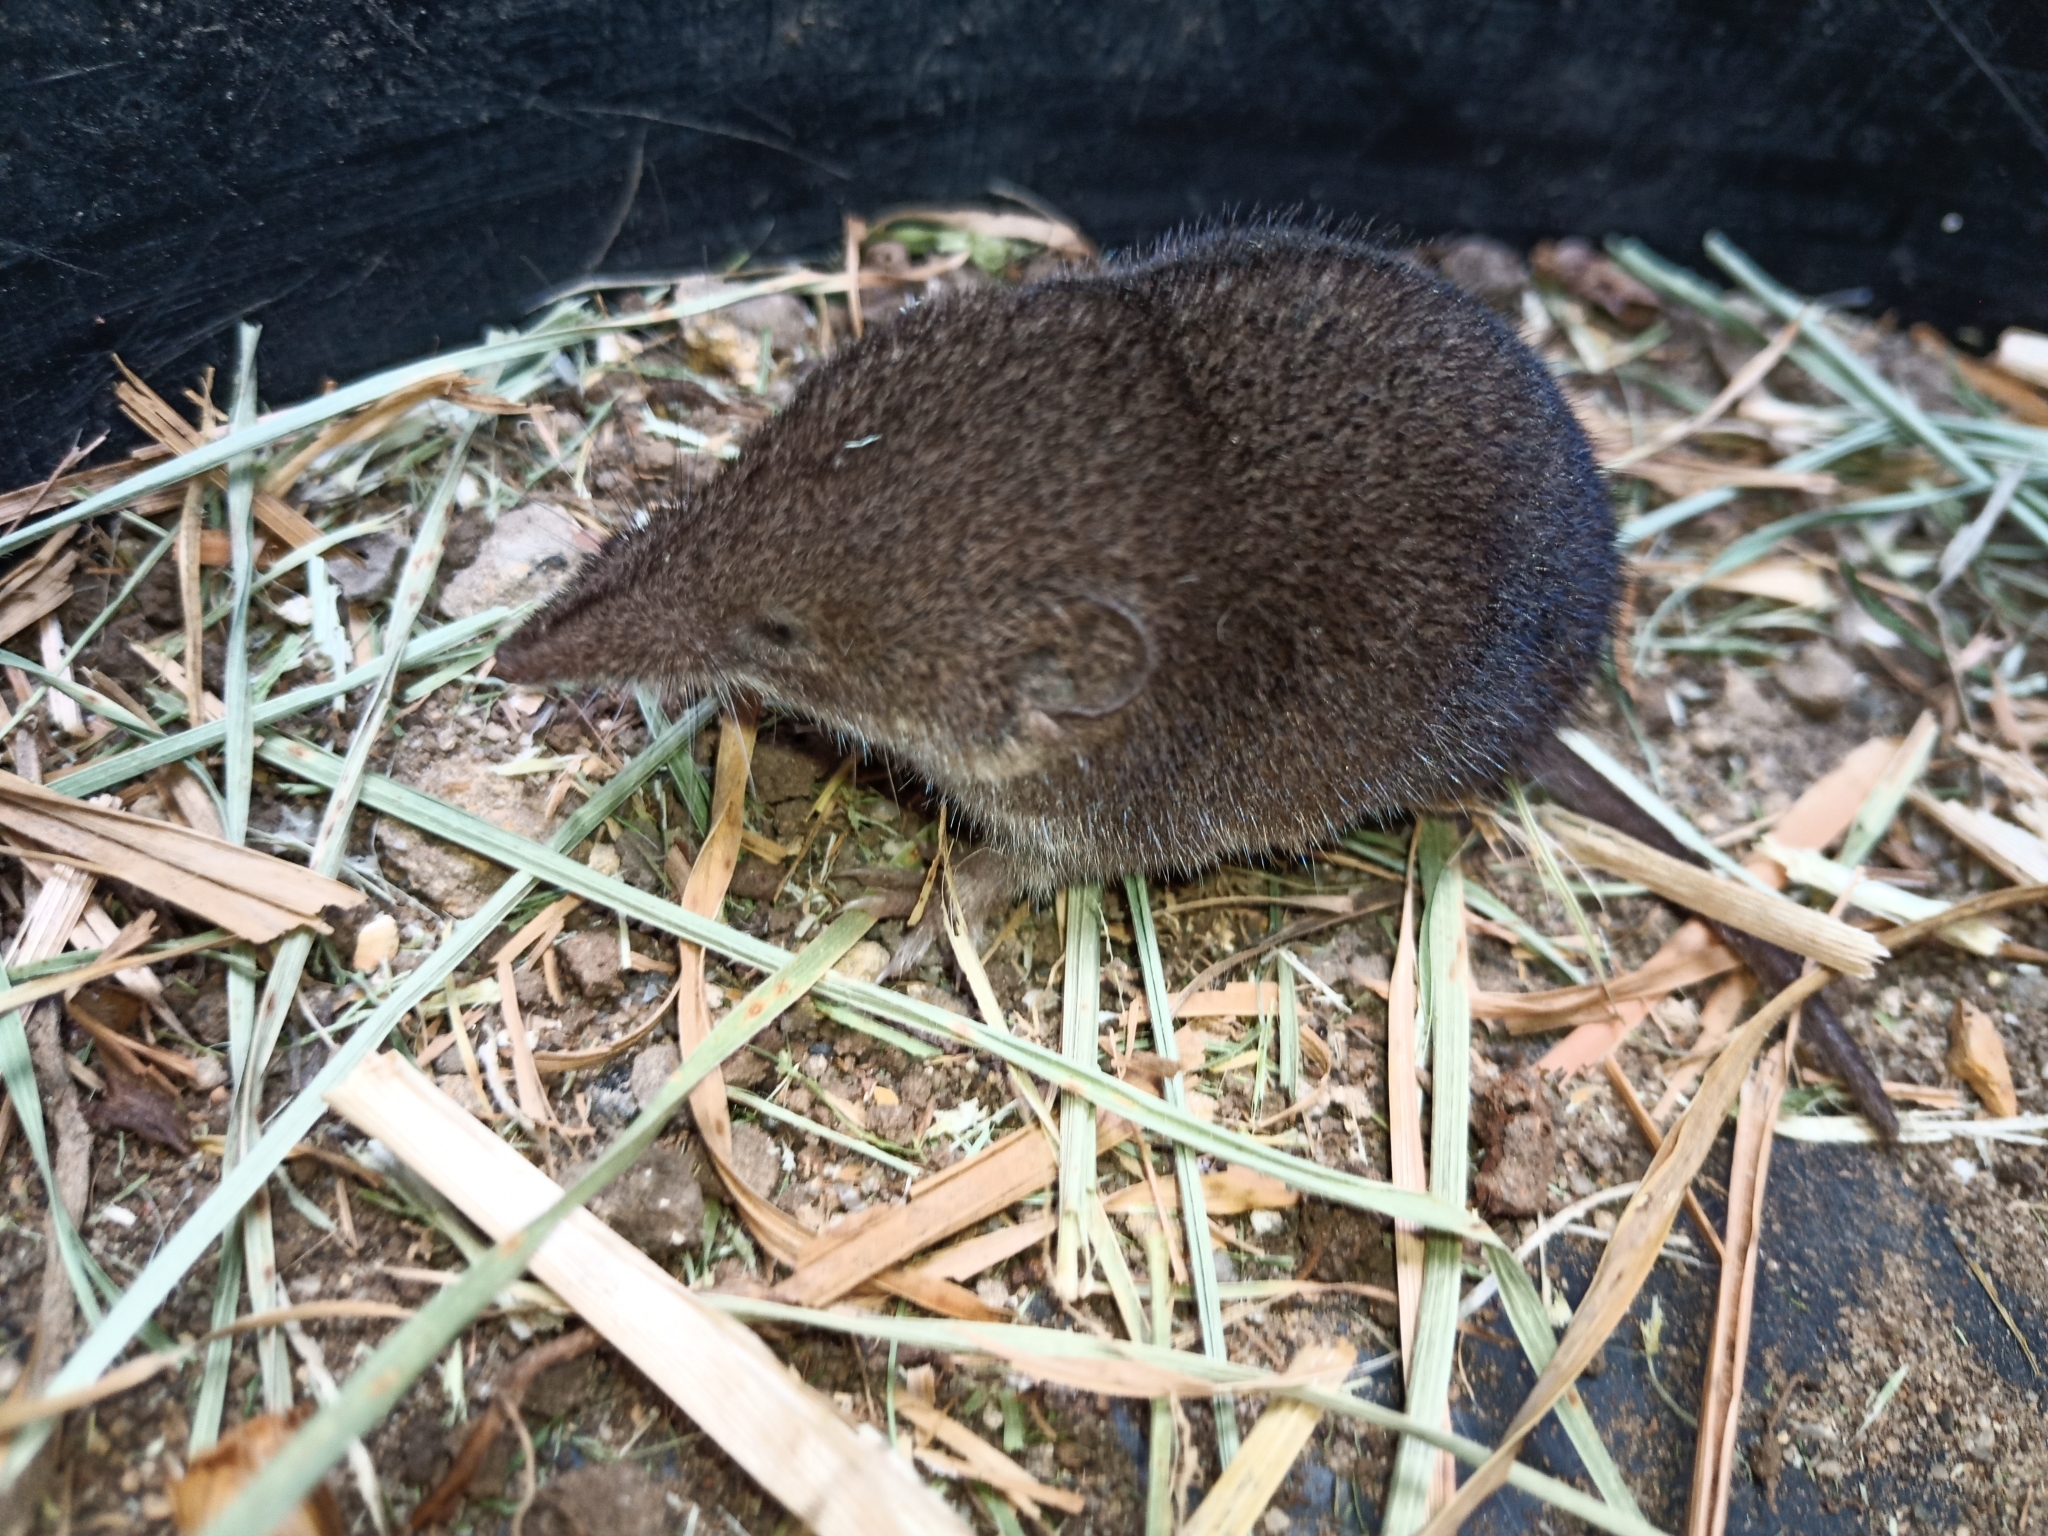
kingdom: Animalia
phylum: Chordata
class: Mammalia
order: Soricomorpha
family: Soricidae
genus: Myosorex
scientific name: Myosorex varius
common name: Forest shrew
